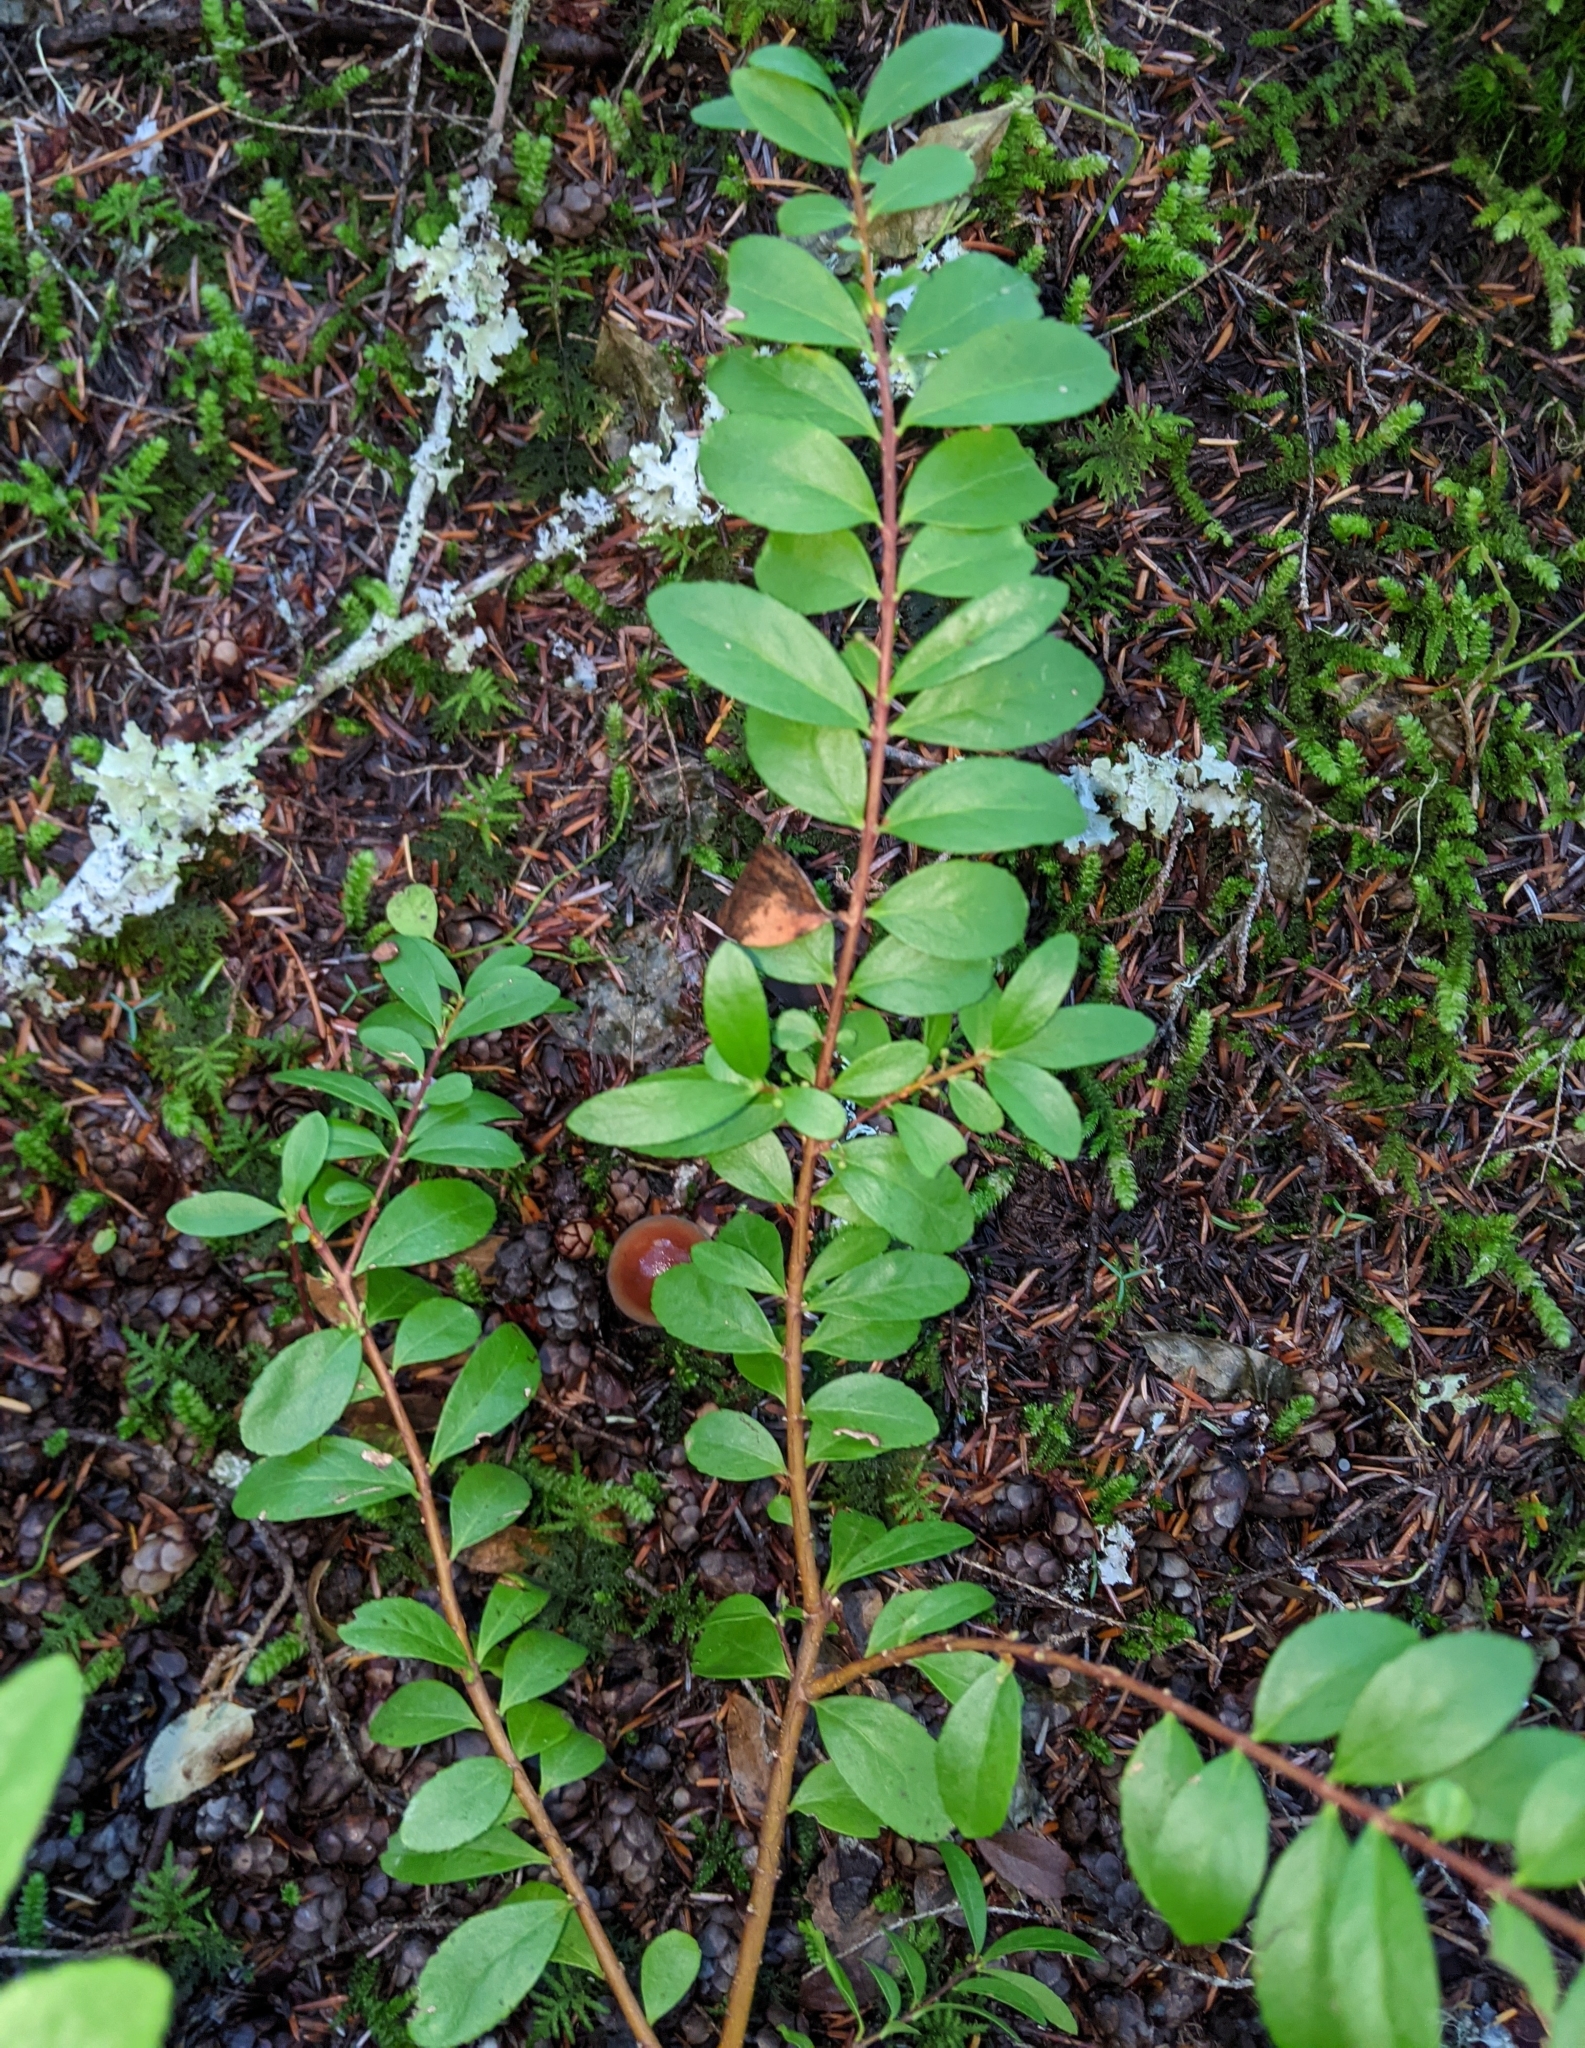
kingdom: Plantae
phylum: Tracheophyta
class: Magnoliopsida
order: Celastrales
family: Celastraceae
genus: Paxistima
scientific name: Paxistima myrsinites
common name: Mountain-lover
